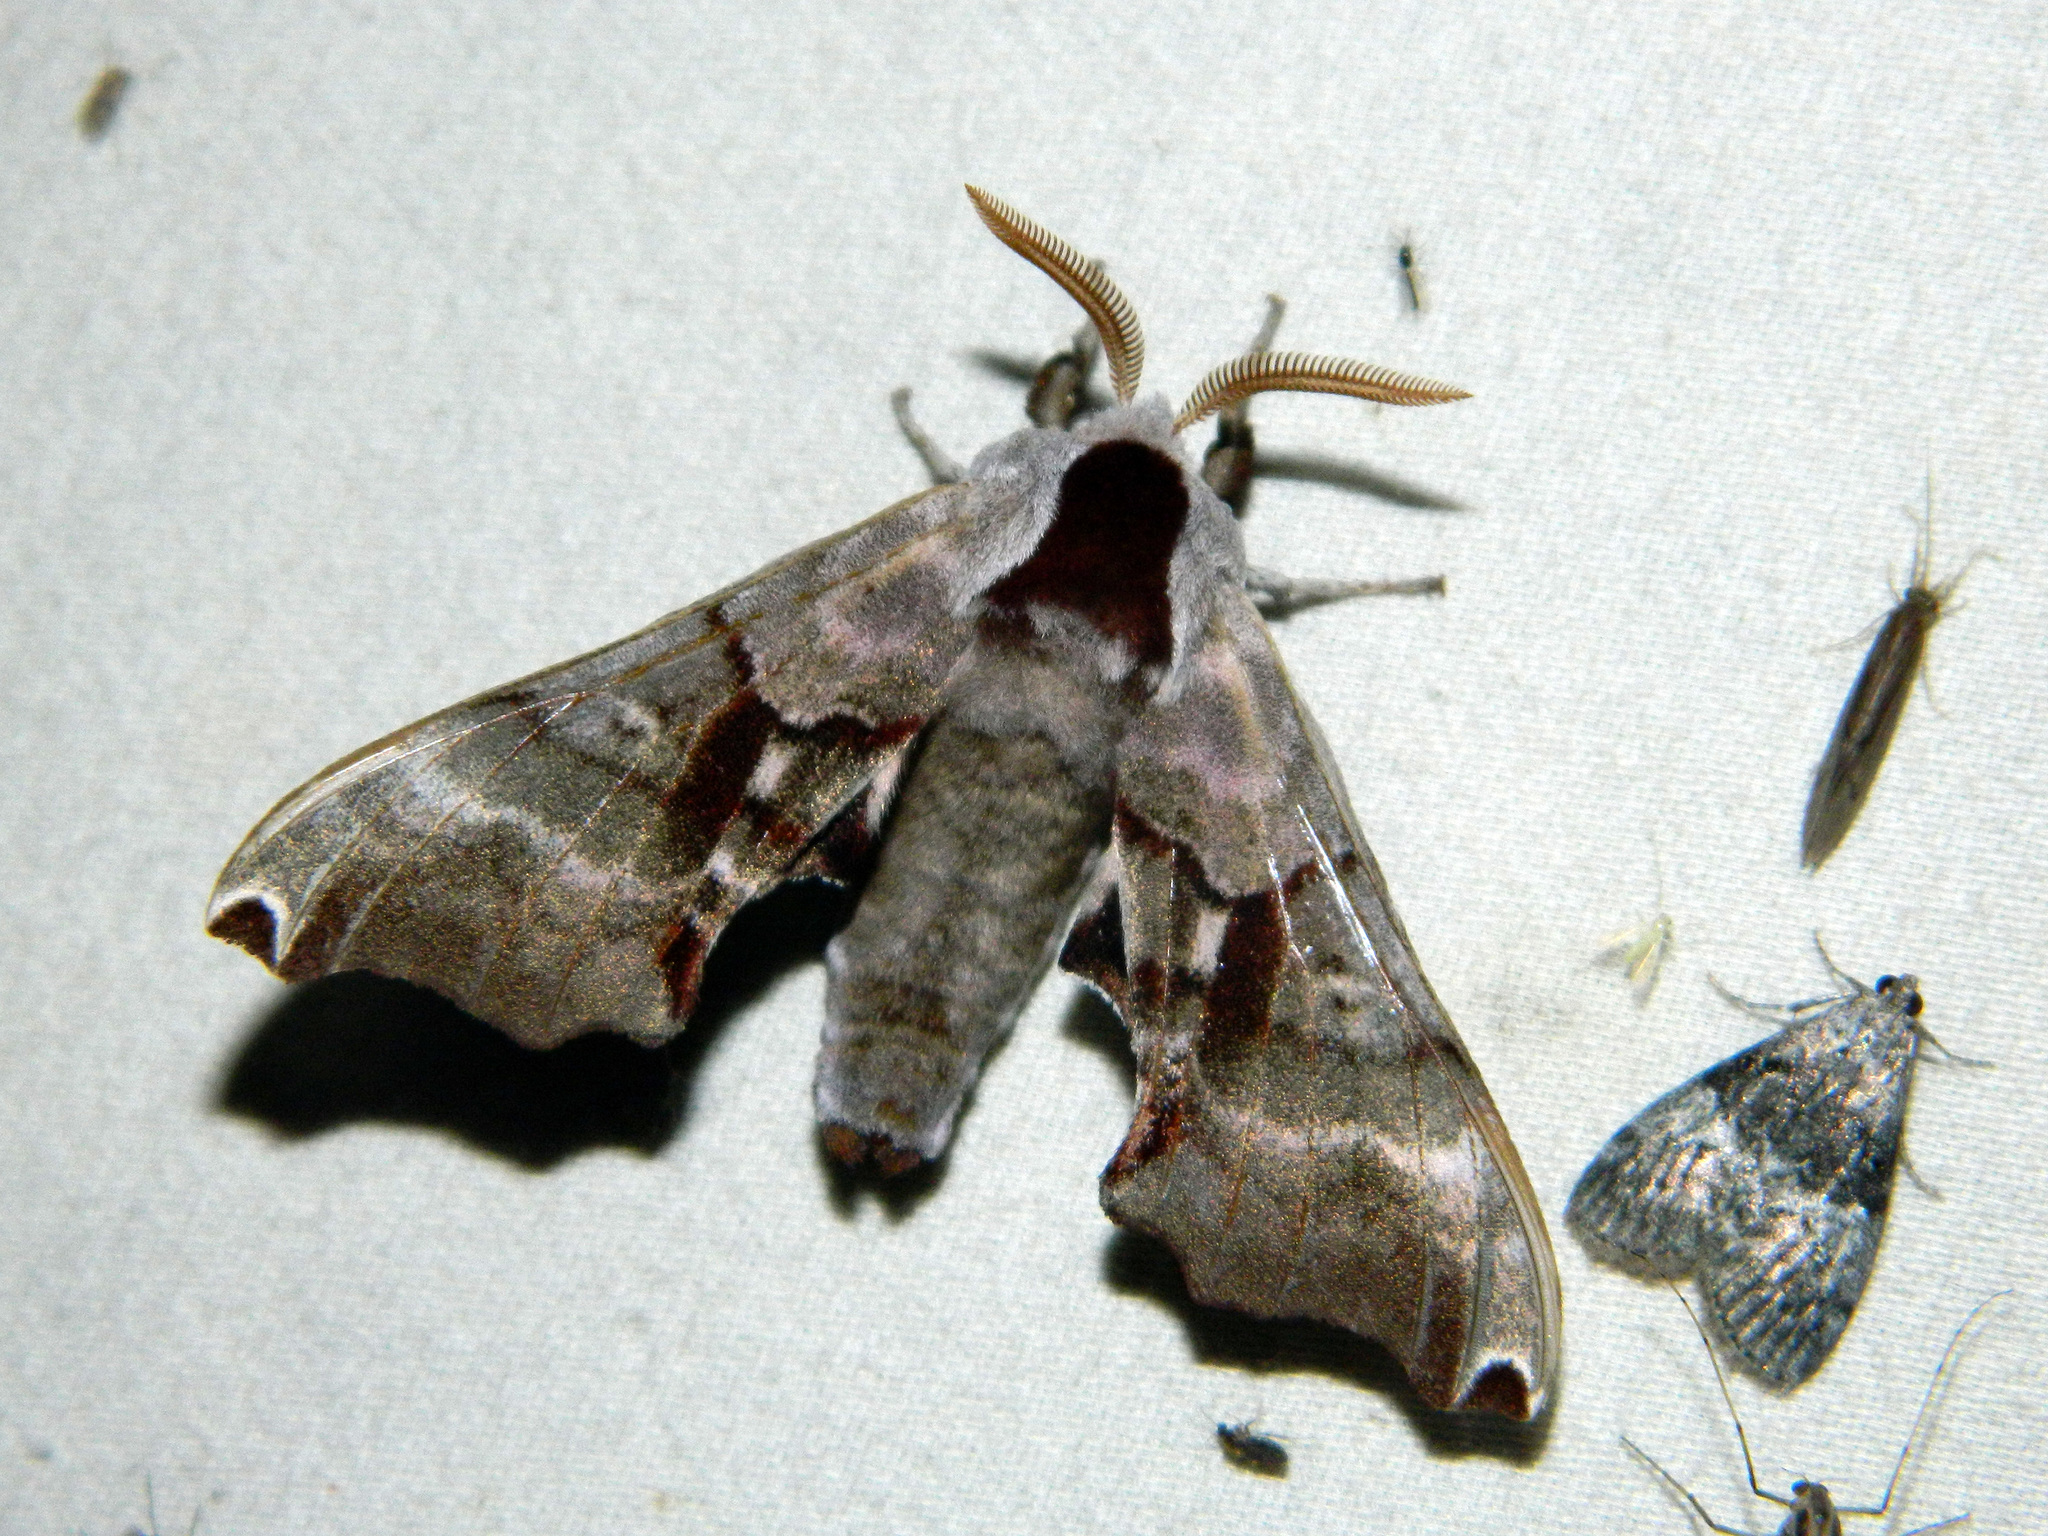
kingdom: Animalia
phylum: Arthropoda
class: Insecta
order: Lepidoptera
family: Sphingidae
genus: Smerinthus
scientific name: Smerinthus jamaicensis
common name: Twin spotted sphinx
